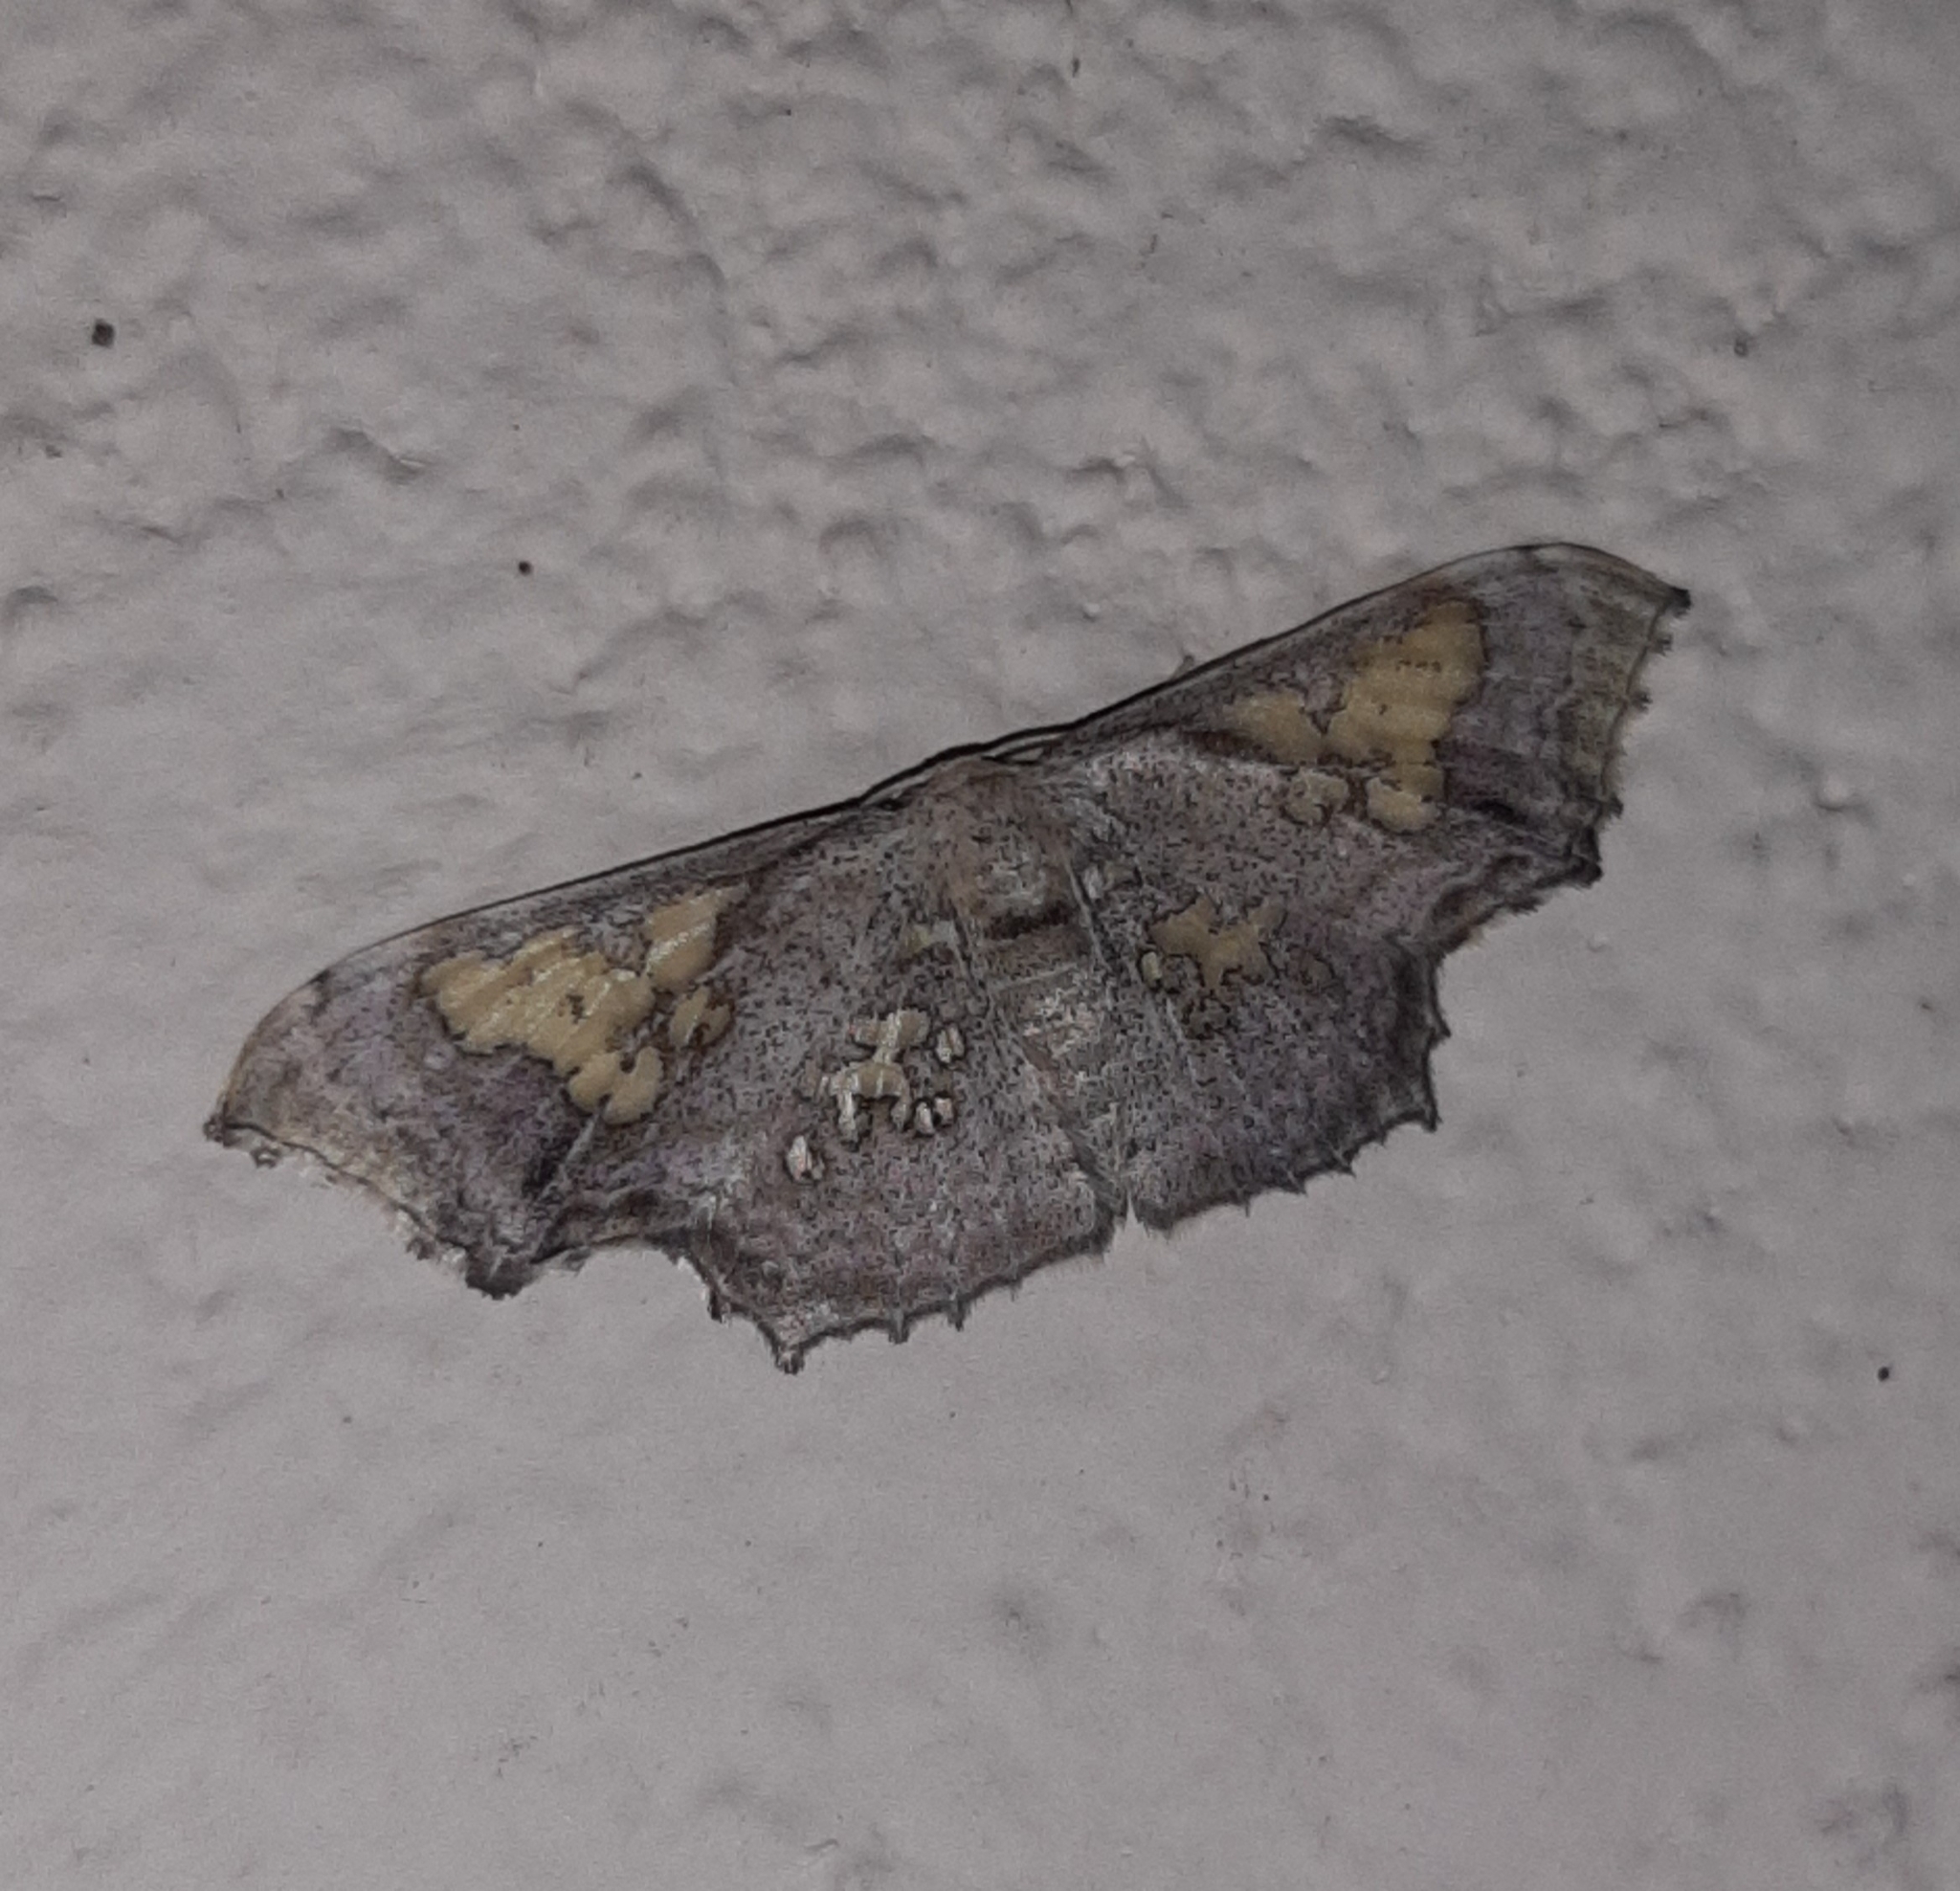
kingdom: Animalia
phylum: Arthropoda
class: Insecta
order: Lepidoptera
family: Geometridae
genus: Pseudasellodes
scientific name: Pseudasellodes fenestraria
